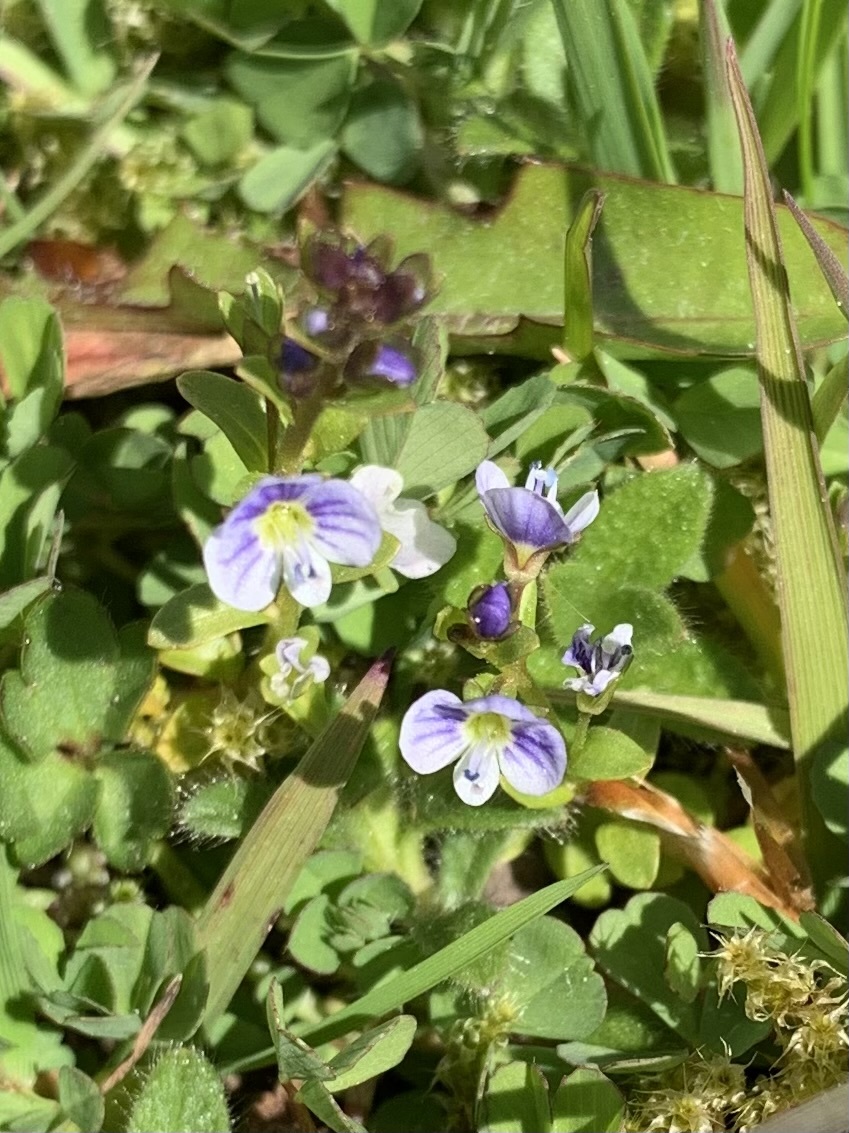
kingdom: Plantae
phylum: Tracheophyta
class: Magnoliopsida
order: Lamiales
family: Plantaginaceae
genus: Veronica
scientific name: Veronica serpyllifolia
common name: Thyme-leaved speedwell
